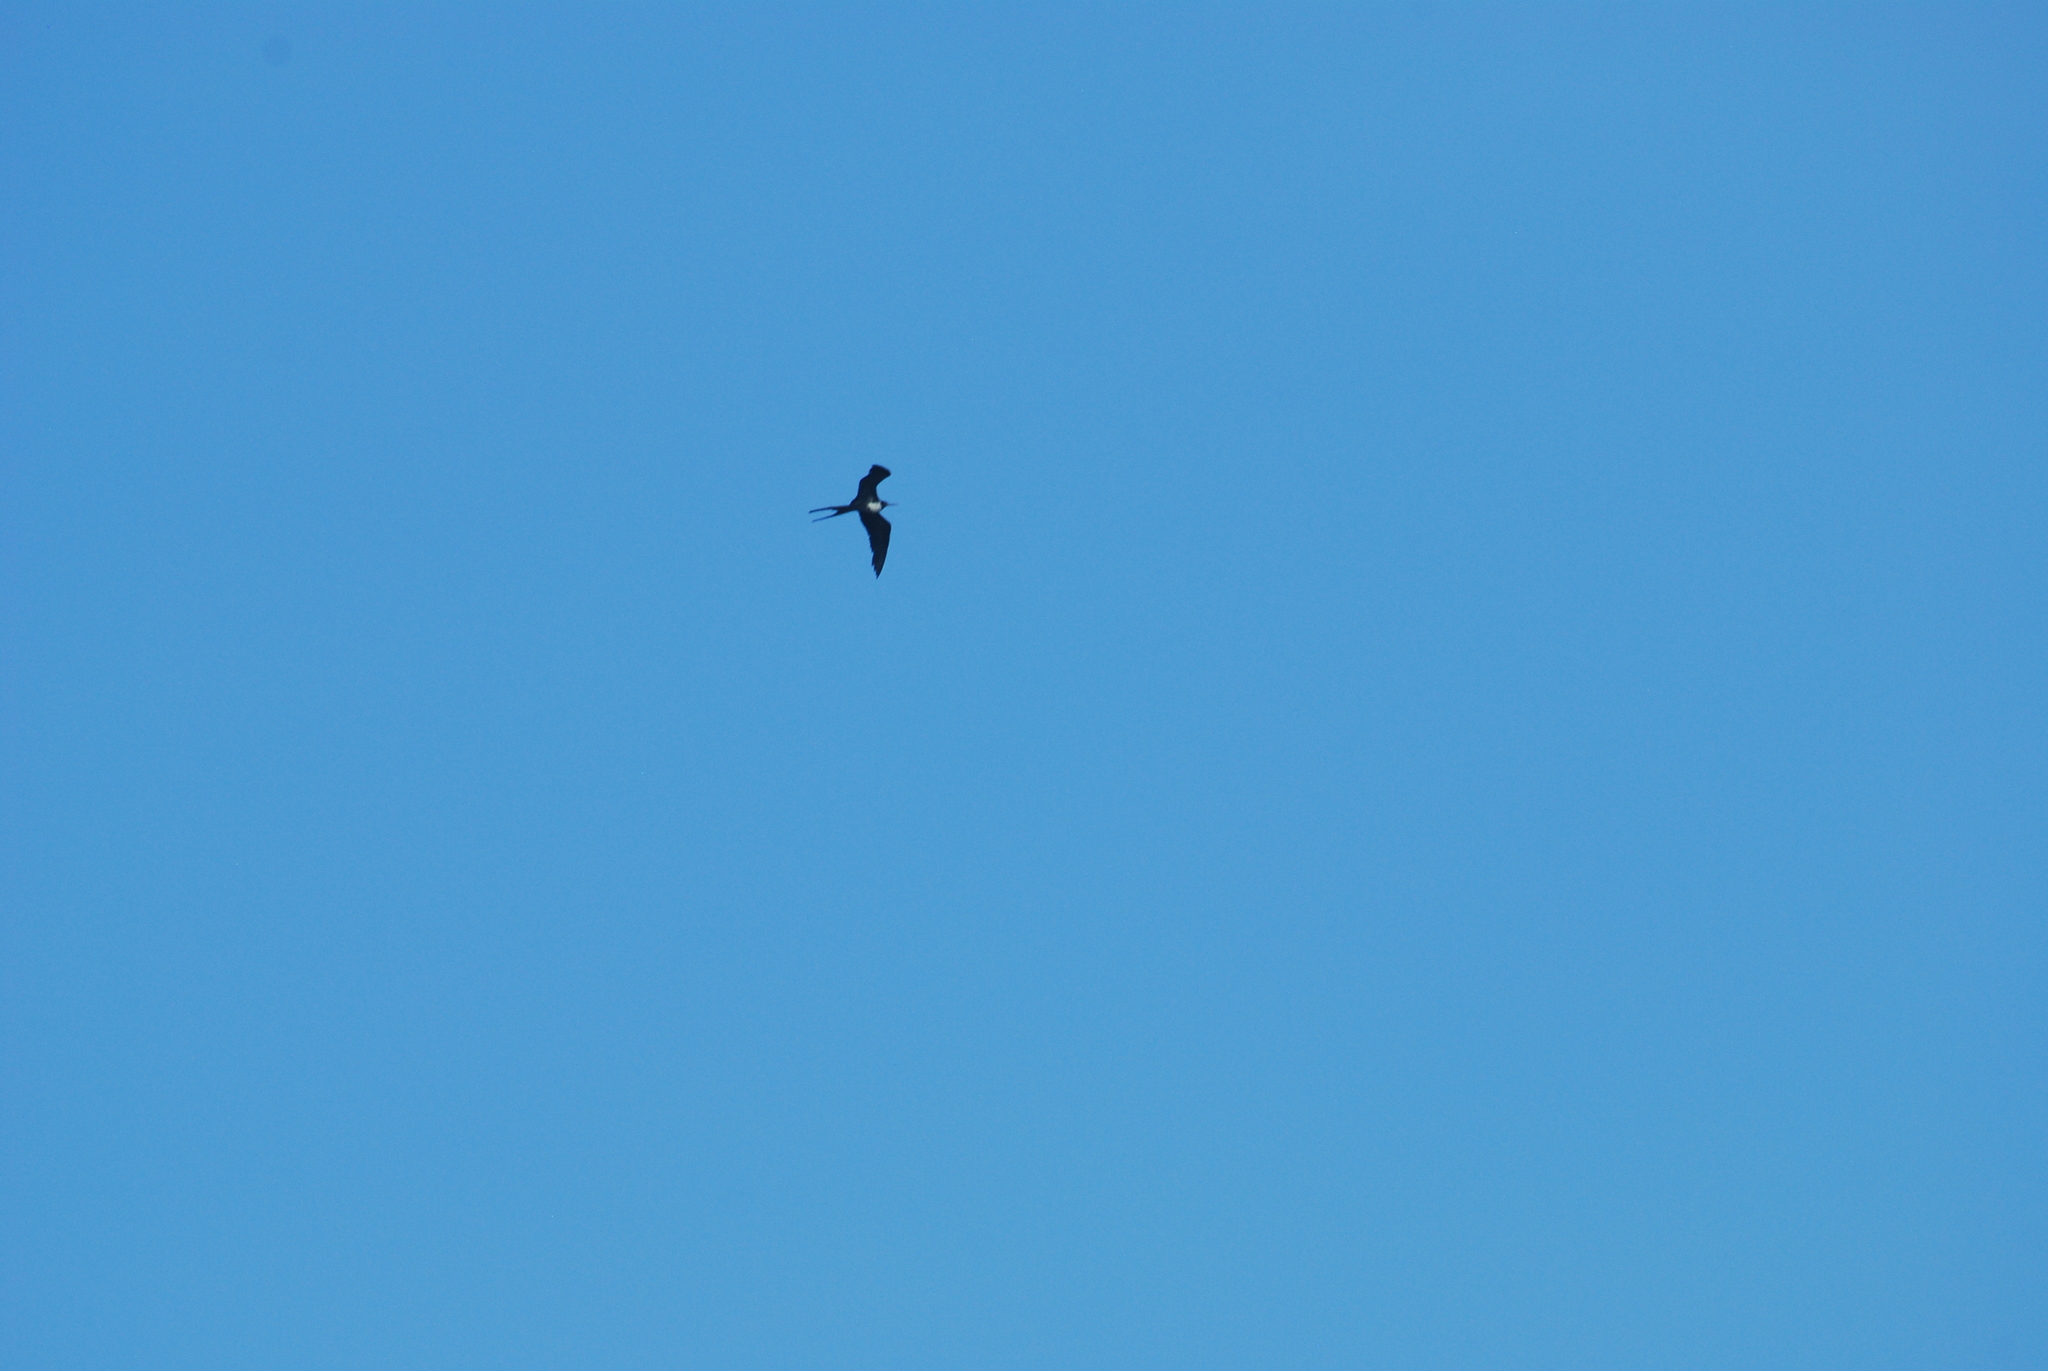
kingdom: Animalia
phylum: Chordata
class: Aves
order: Suliformes
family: Fregatidae
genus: Fregata
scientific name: Fregata magnificens
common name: Magnificent frigatebird
